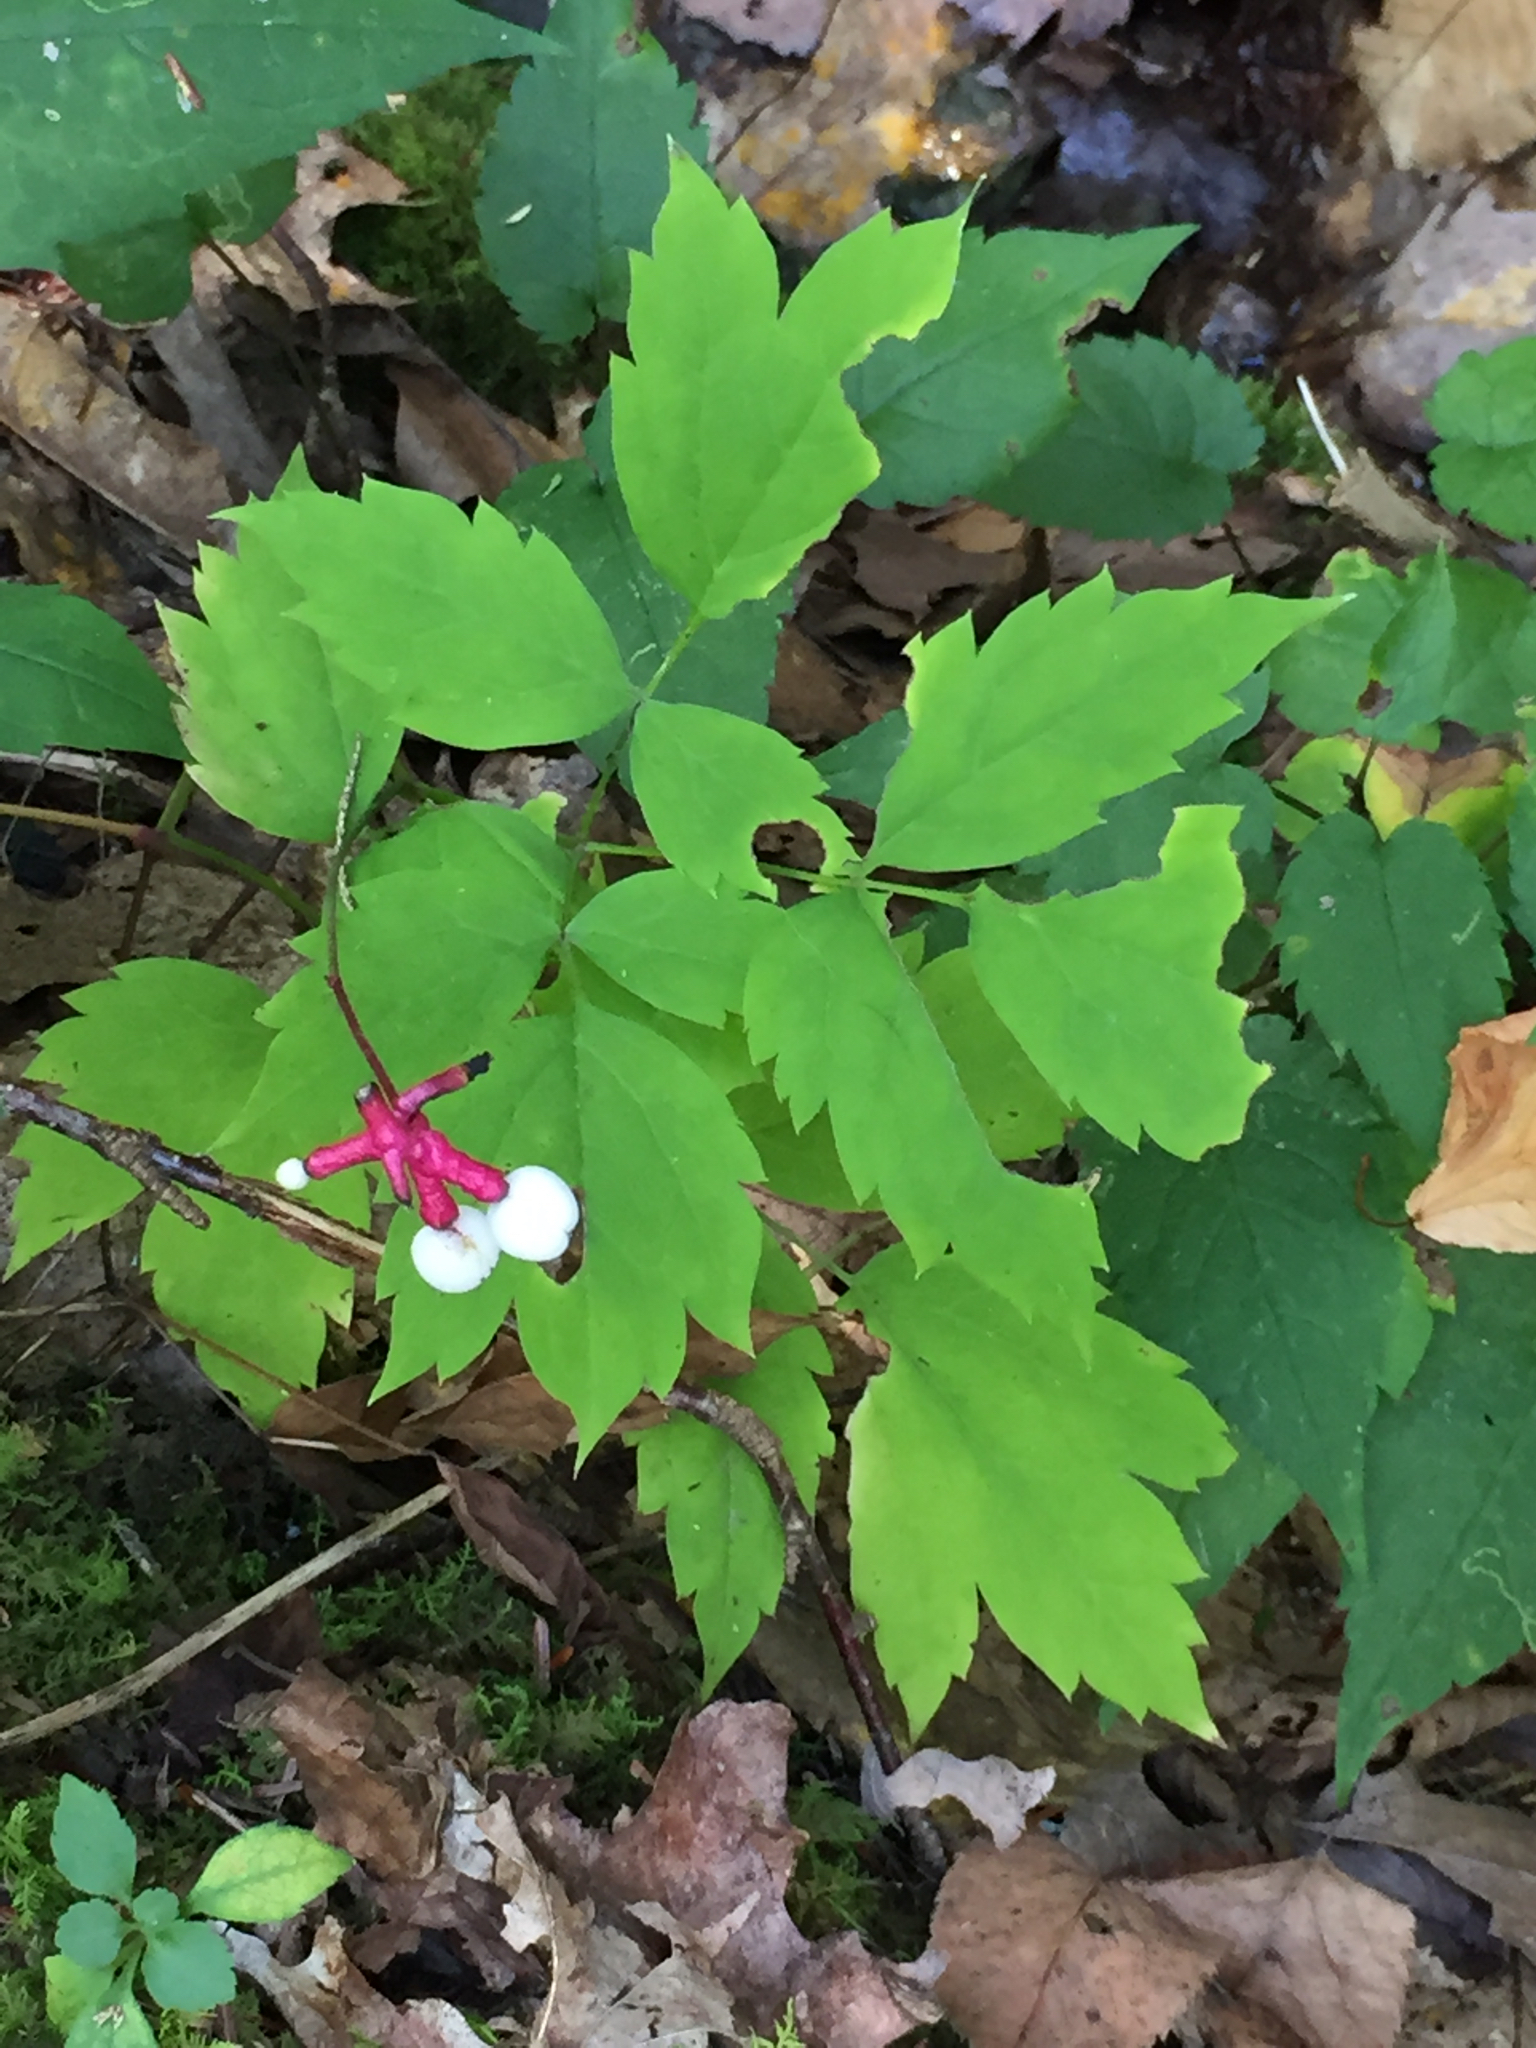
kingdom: Plantae
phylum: Tracheophyta
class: Magnoliopsida
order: Ranunculales
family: Ranunculaceae
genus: Actaea
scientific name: Actaea pachypoda
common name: Doll's-eyes
